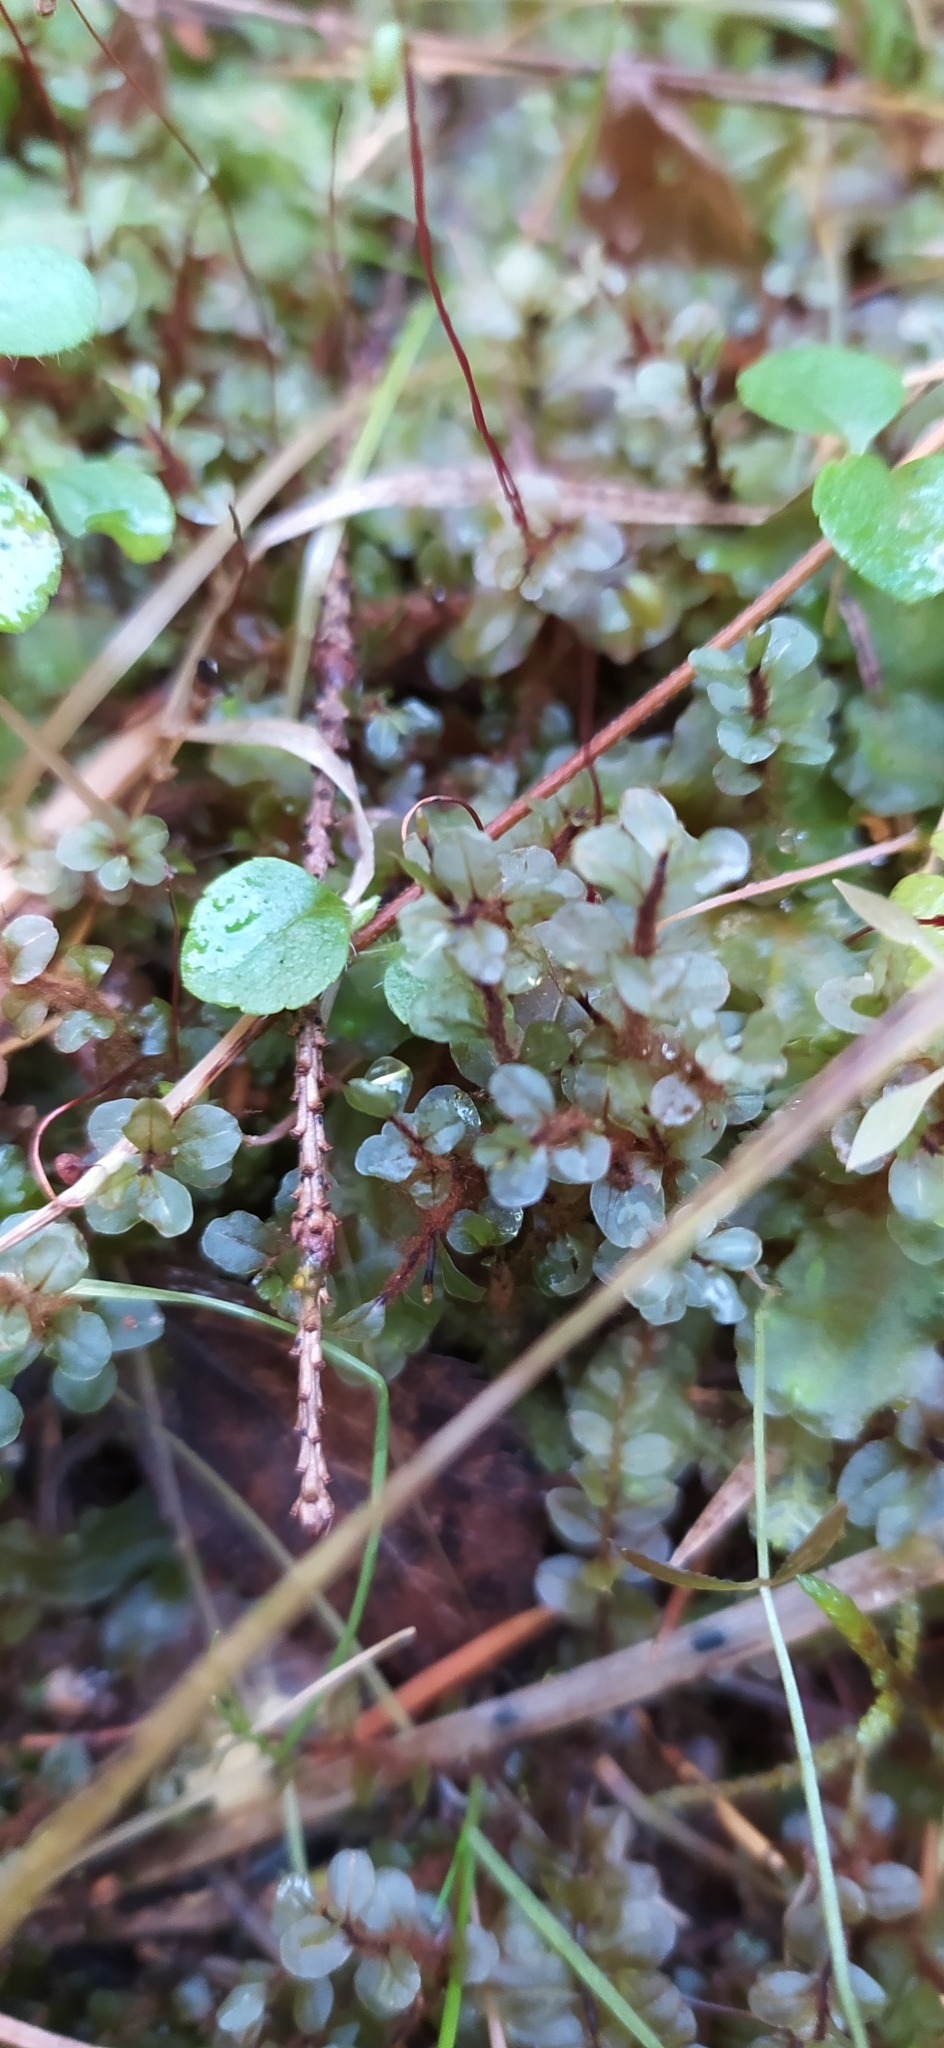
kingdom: Plantae
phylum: Bryophyta
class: Bryopsida
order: Bryales
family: Mniaceae
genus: Rhizomnium
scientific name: Rhizomnium punctatum
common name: Dotted leafy moss
